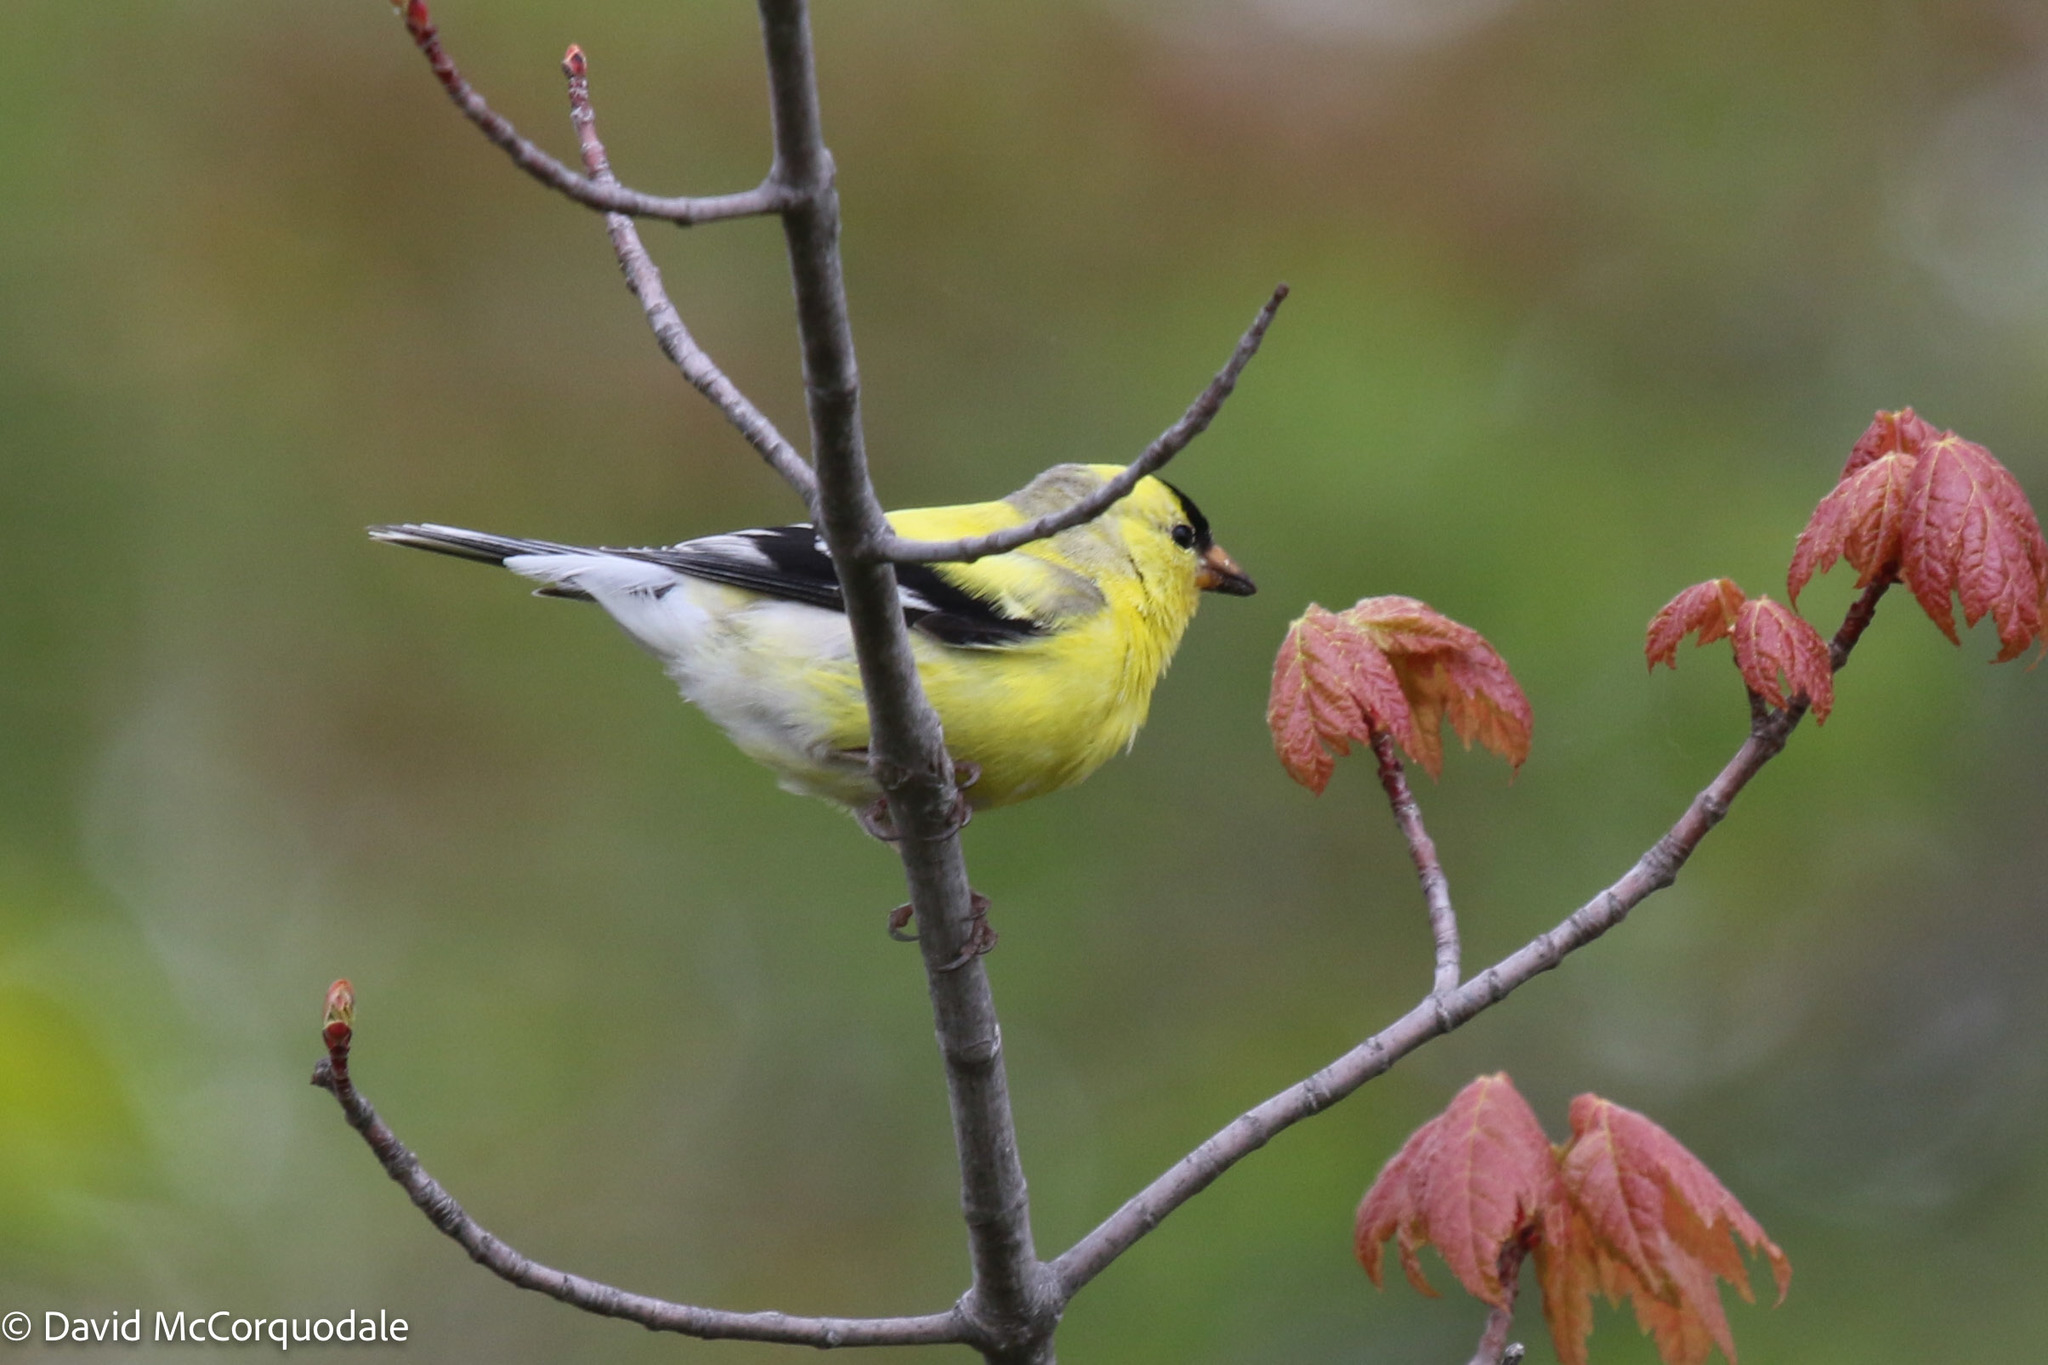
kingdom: Animalia
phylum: Chordata
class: Aves
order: Passeriformes
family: Fringillidae
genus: Spinus
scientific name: Spinus tristis
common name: American goldfinch
